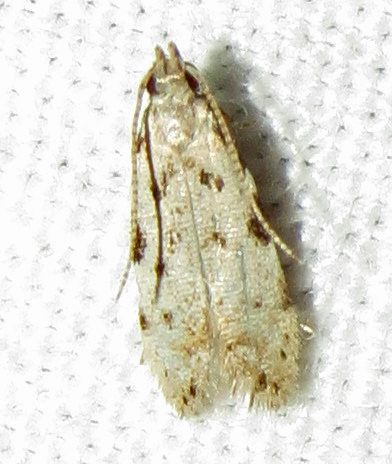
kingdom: Animalia
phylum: Arthropoda
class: Insecta
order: Lepidoptera
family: Autostichidae
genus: Taygete
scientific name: Taygete gallaegenitella
